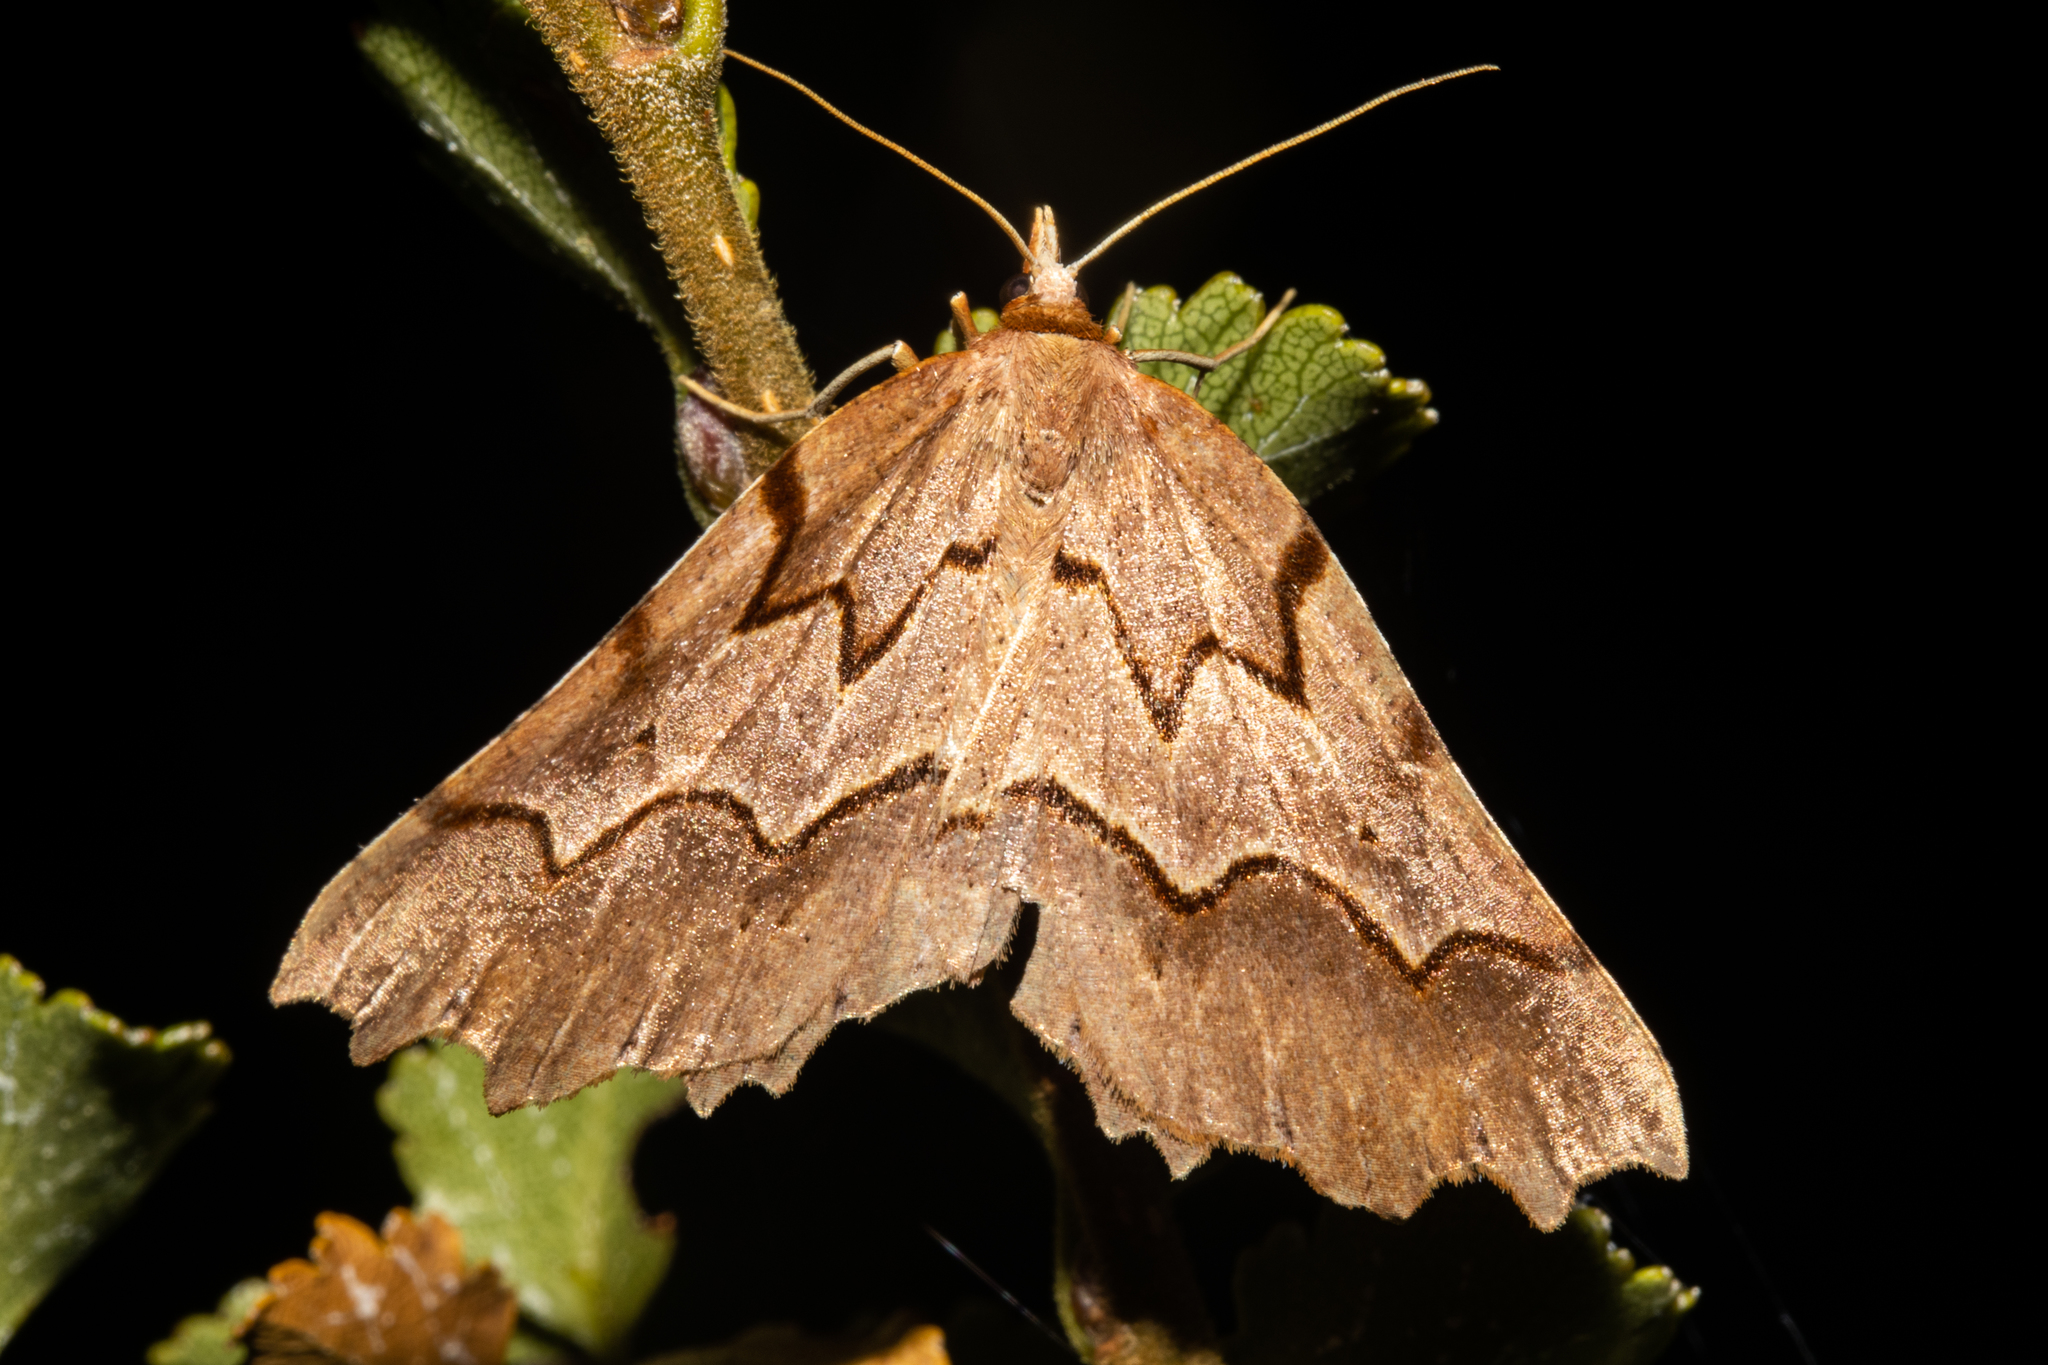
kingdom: Animalia
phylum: Arthropoda
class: Insecta
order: Lepidoptera
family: Geometridae
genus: Ischalis
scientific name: Ischalis fortinata
